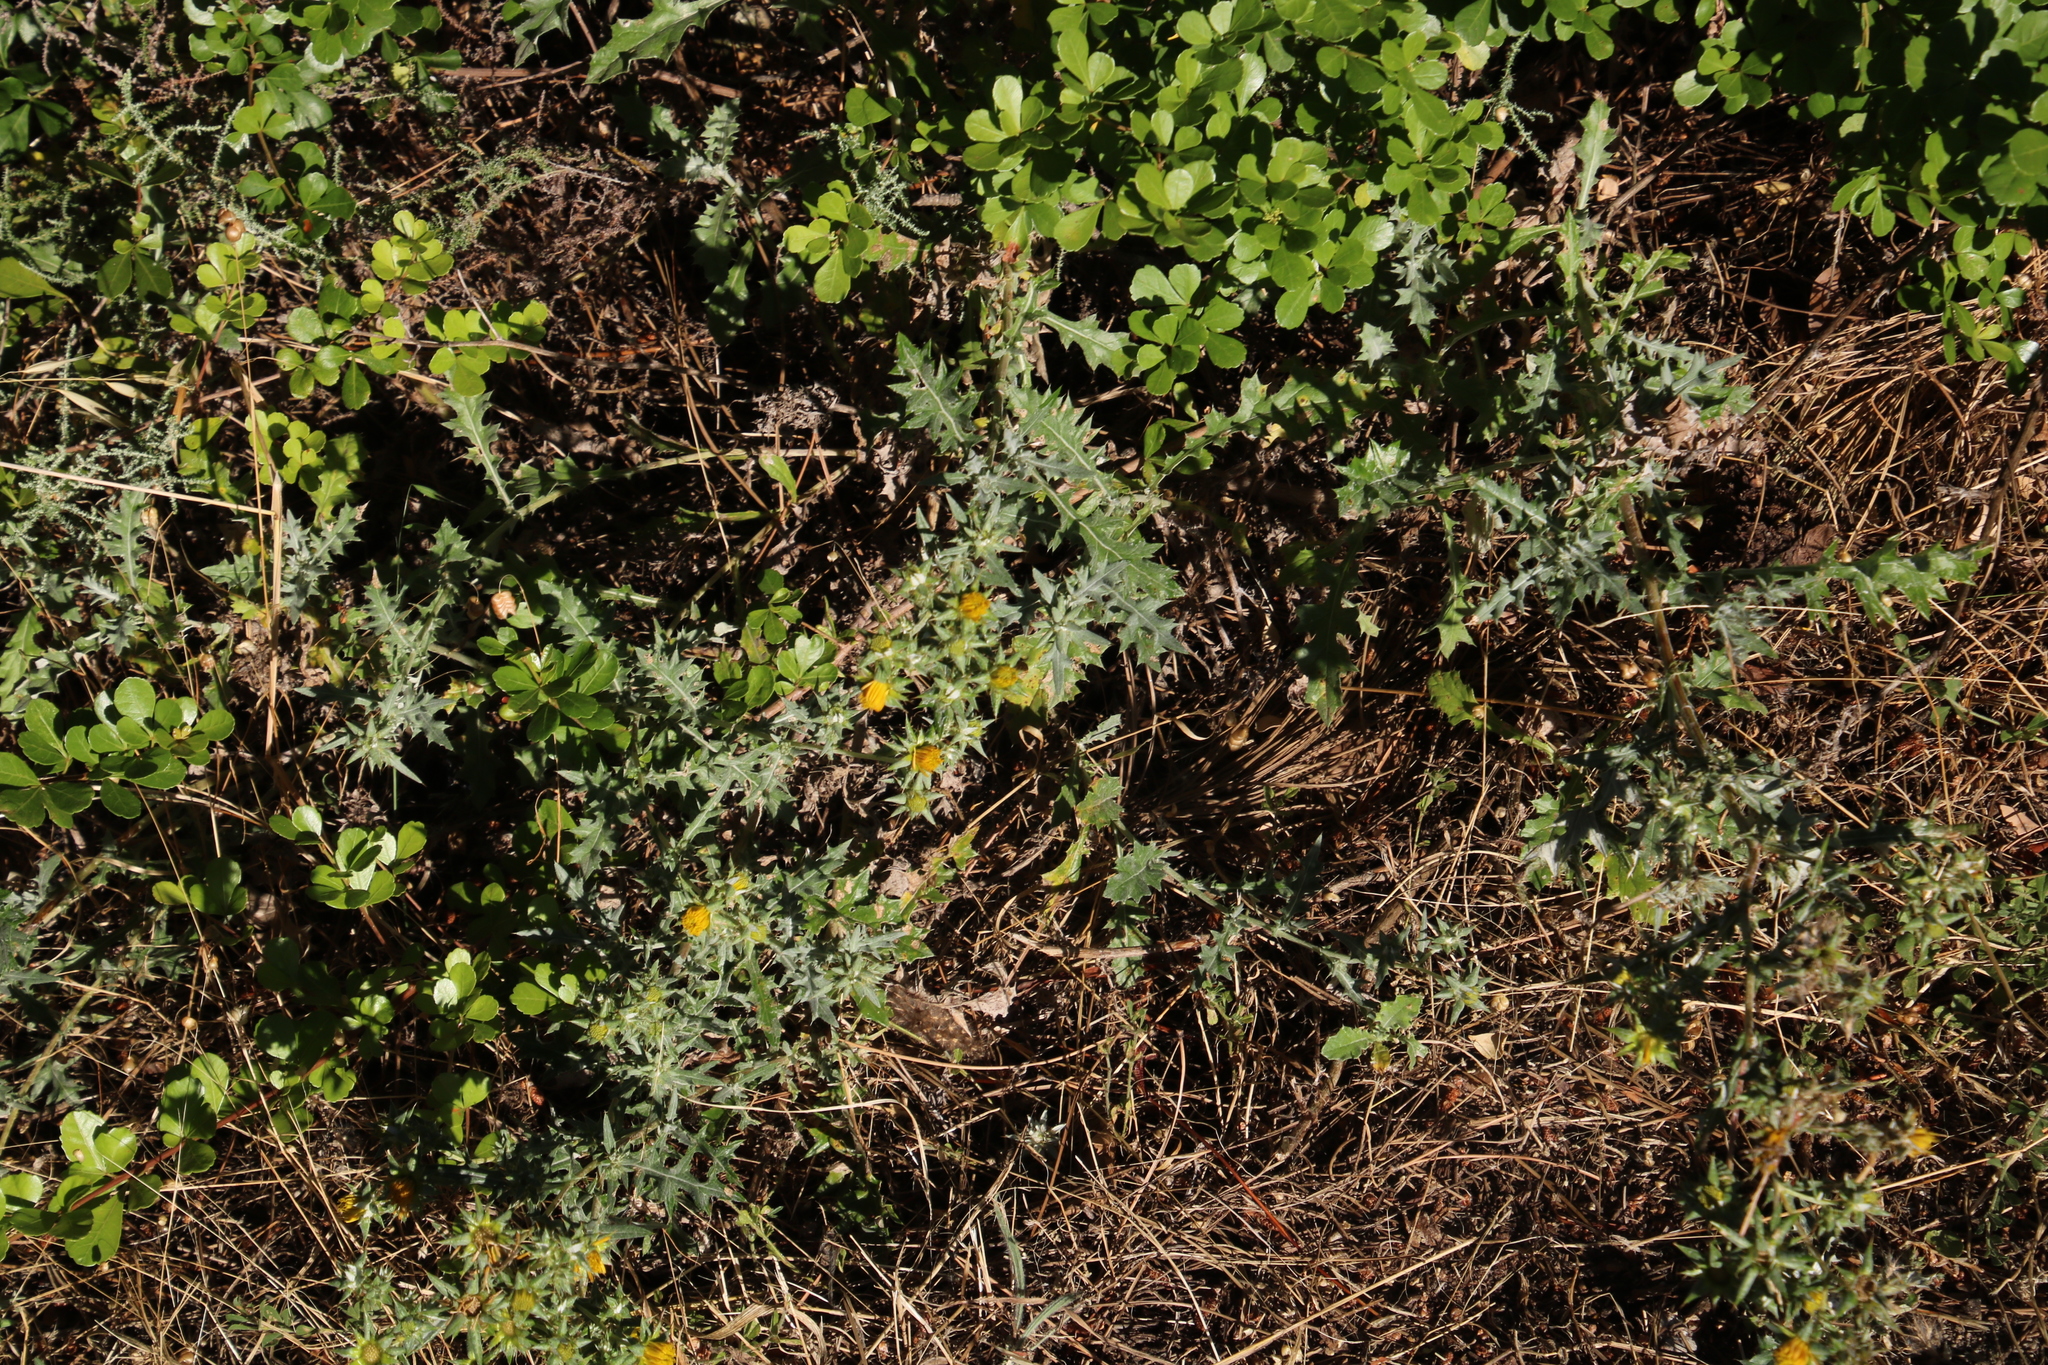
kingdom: Plantae
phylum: Tracheophyta
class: Magnoliopsida
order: Asterales
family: Asteraceae
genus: Berkheya
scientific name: Berkheya rigida
